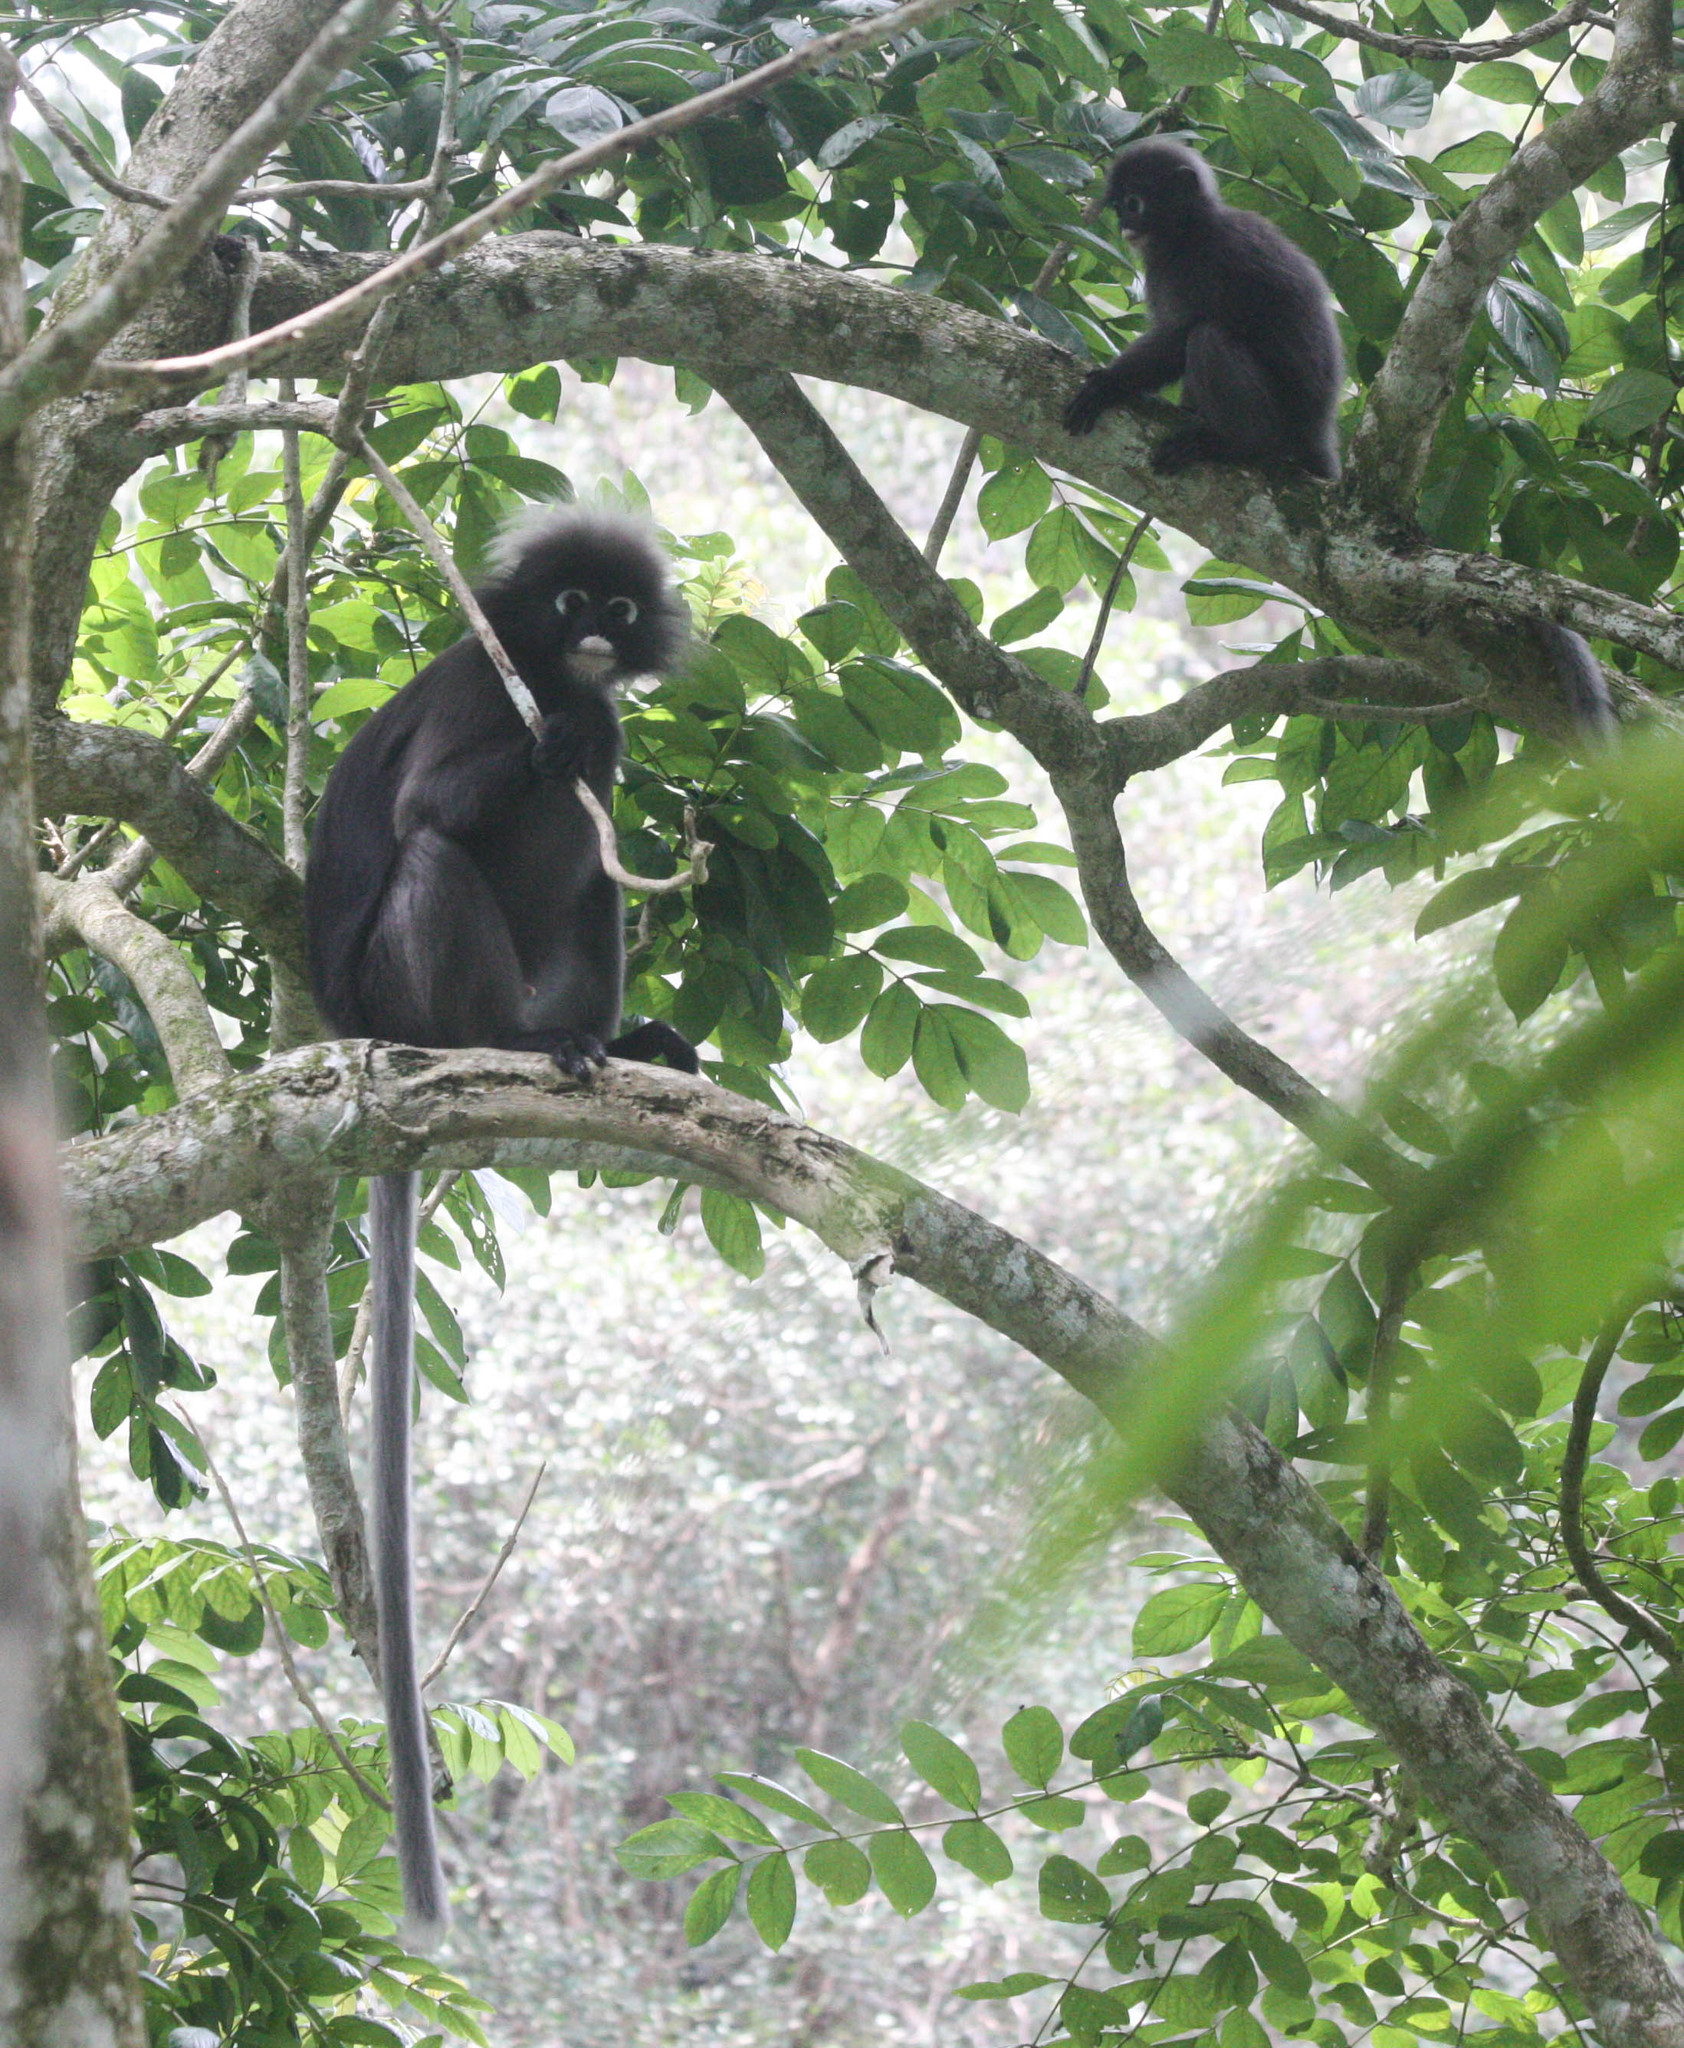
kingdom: Animalia
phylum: Chordata
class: Mammalia
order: Primates
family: Cercopithecidae
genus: Trachypithecus
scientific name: Trachypithecus obscurus
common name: Dusky leaf-monkey
